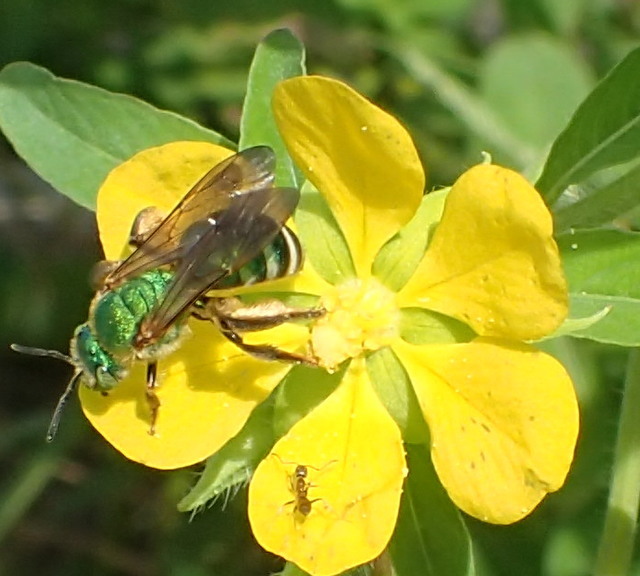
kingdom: Animalia
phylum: Arthropoda
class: Insecta
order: Hymenoptera
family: Halictidae
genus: Agapostemon
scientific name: Agapostemon splendens
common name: Brown-winged striped sweat bee
